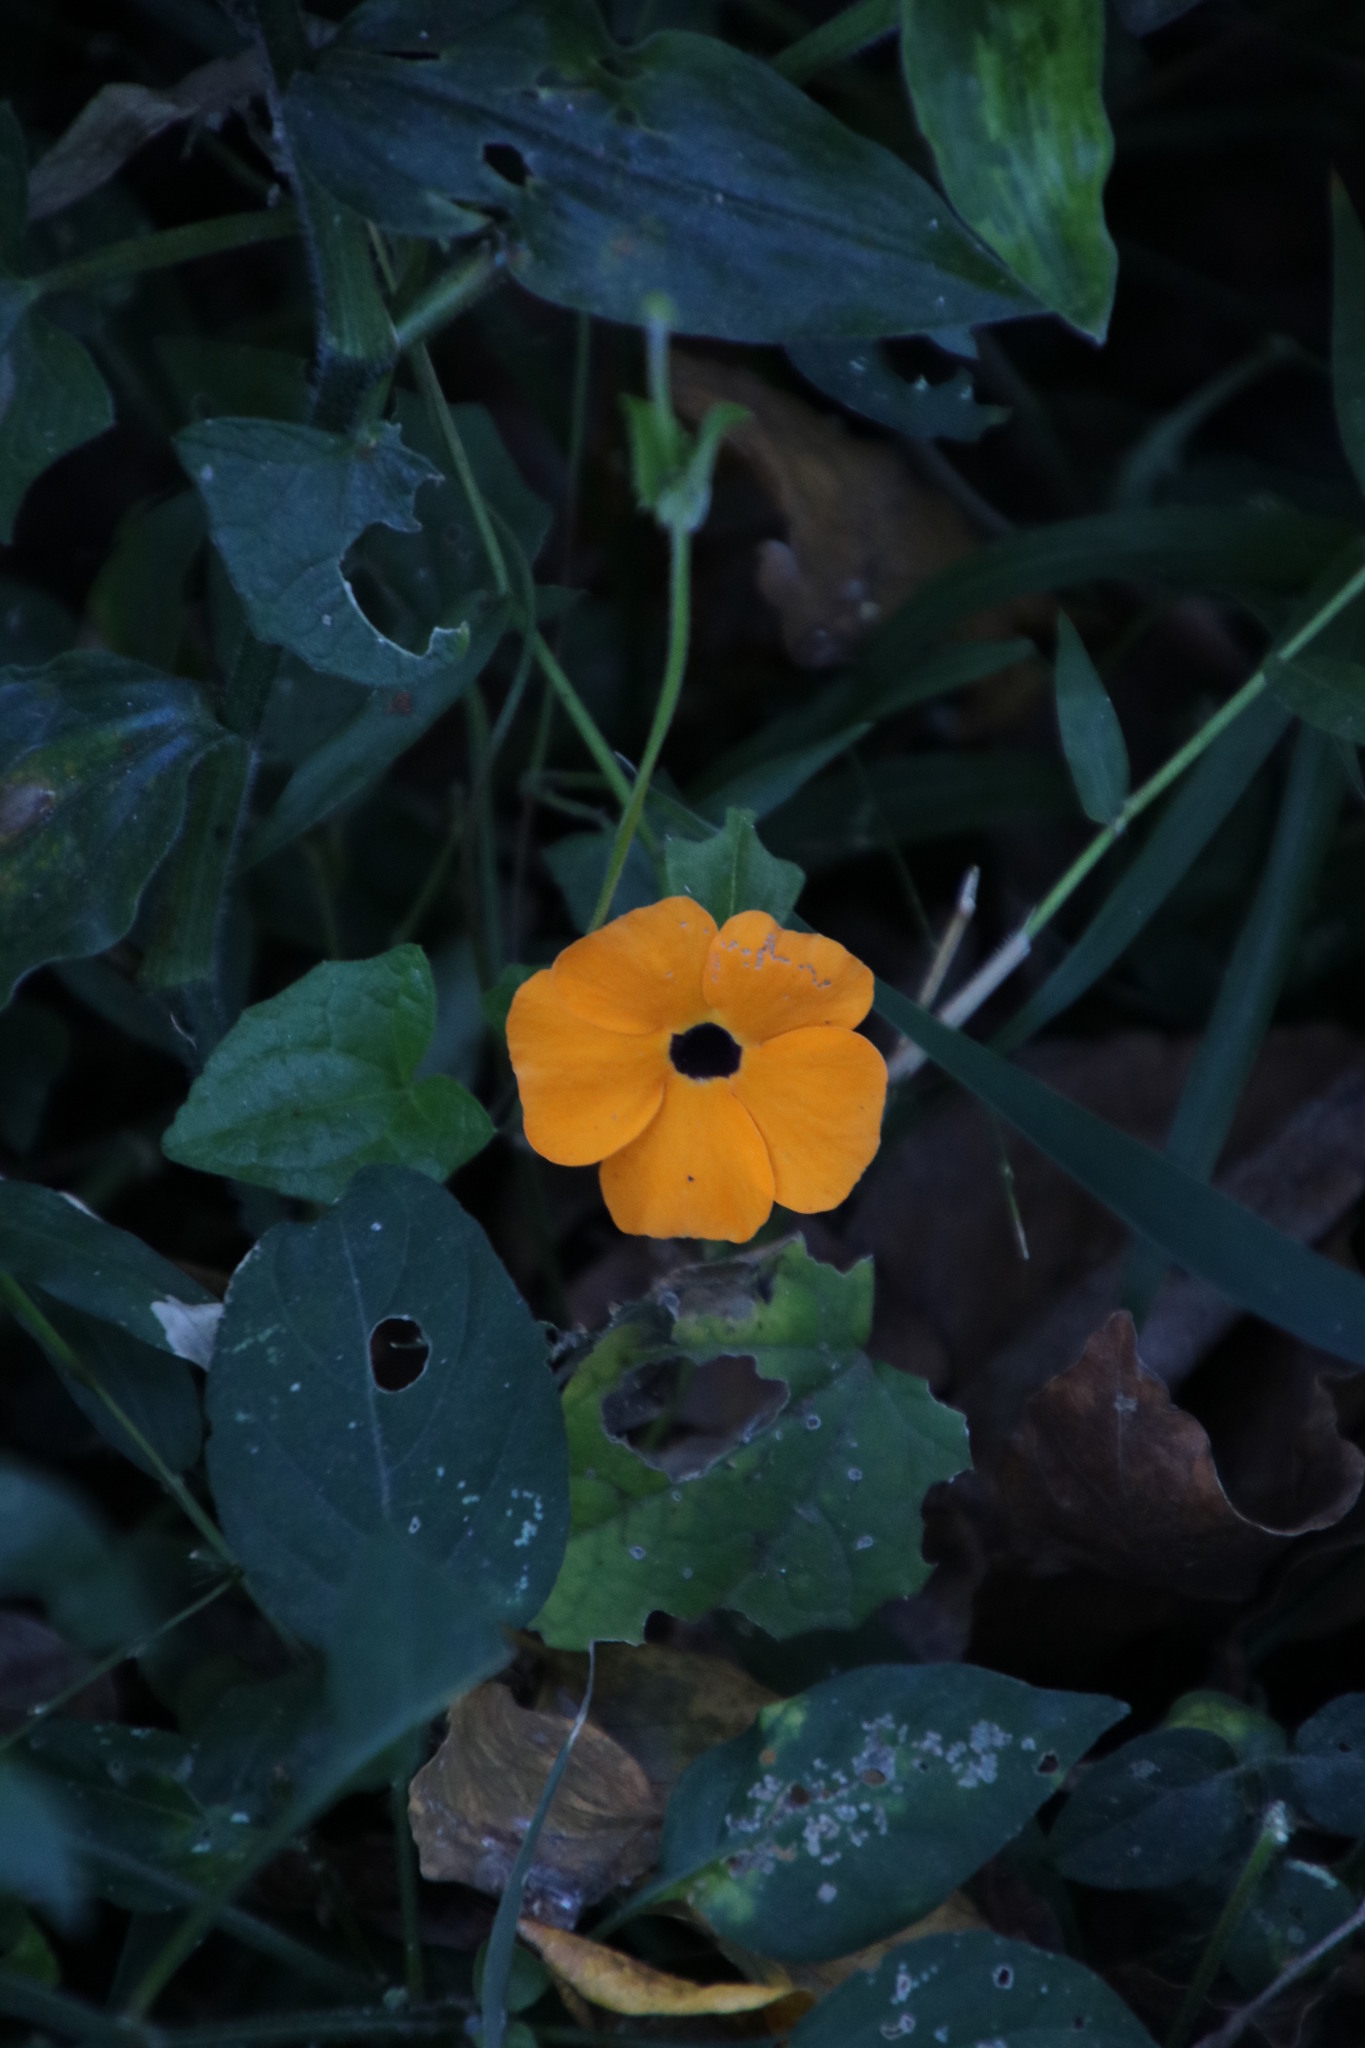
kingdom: Plantae
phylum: Tracheophyta
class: Magnoliopsida
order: Lamiales
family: Acanthaceae
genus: Thunbergia
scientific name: Thunbergia alata
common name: Blackeyed susan vine
